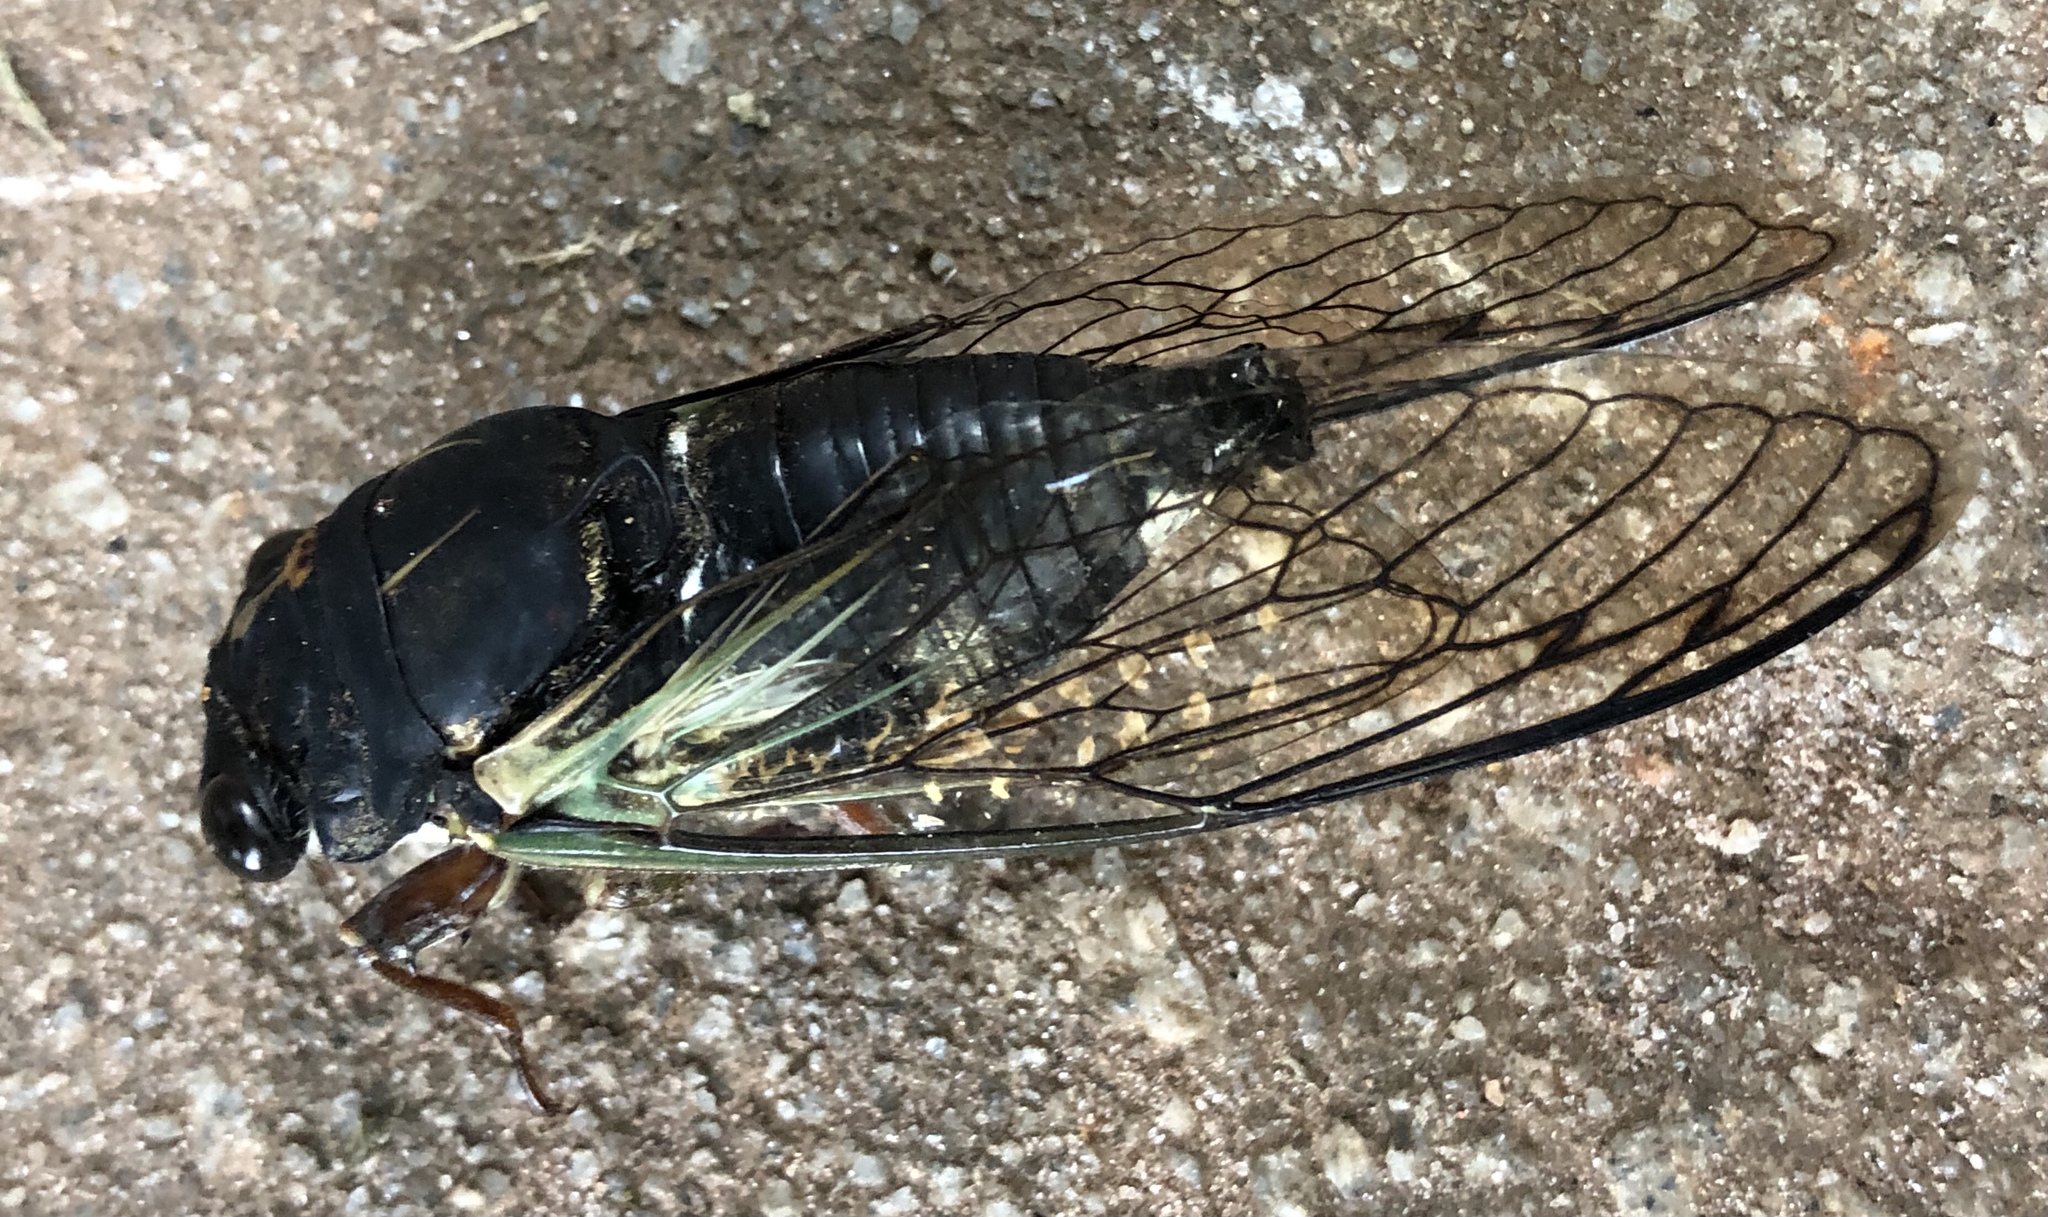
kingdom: Animalia
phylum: Arthropoda
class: Insecta
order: Hemiptera
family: Cicadidae
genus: Neotibicen
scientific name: Neotibicen lyricen
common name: Lyric cicada
